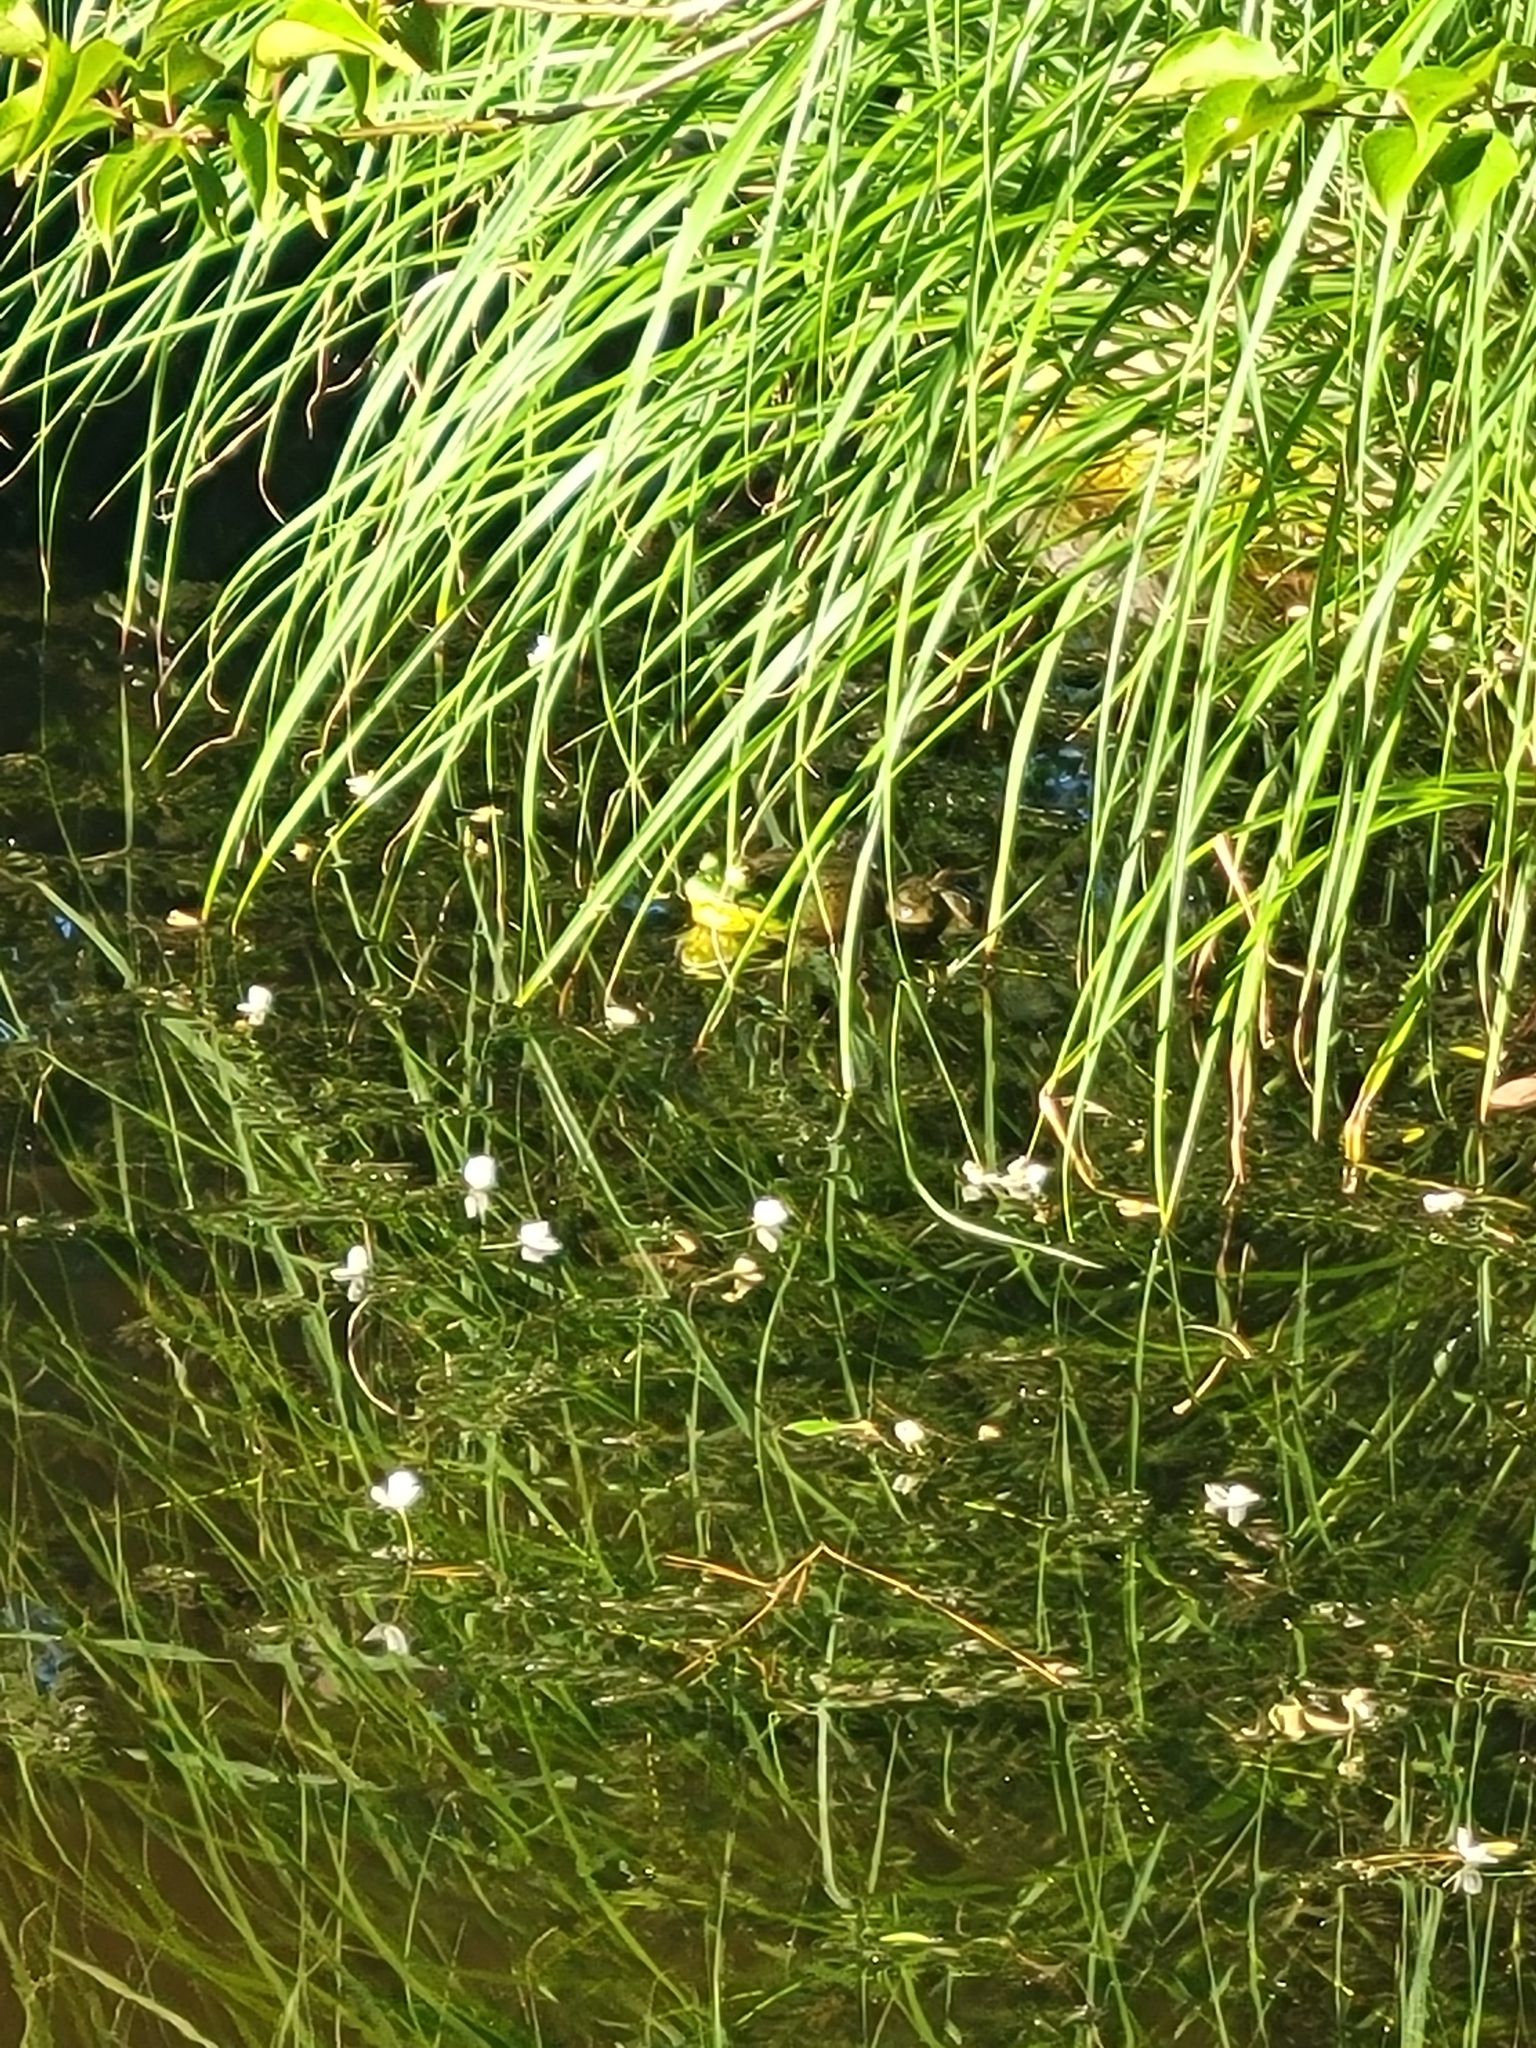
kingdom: Animalia
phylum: Chordata
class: Amphibia
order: Anura
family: Ranidae
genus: Lithobates
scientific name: Lithobates catesbeianus
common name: American bullfrog
